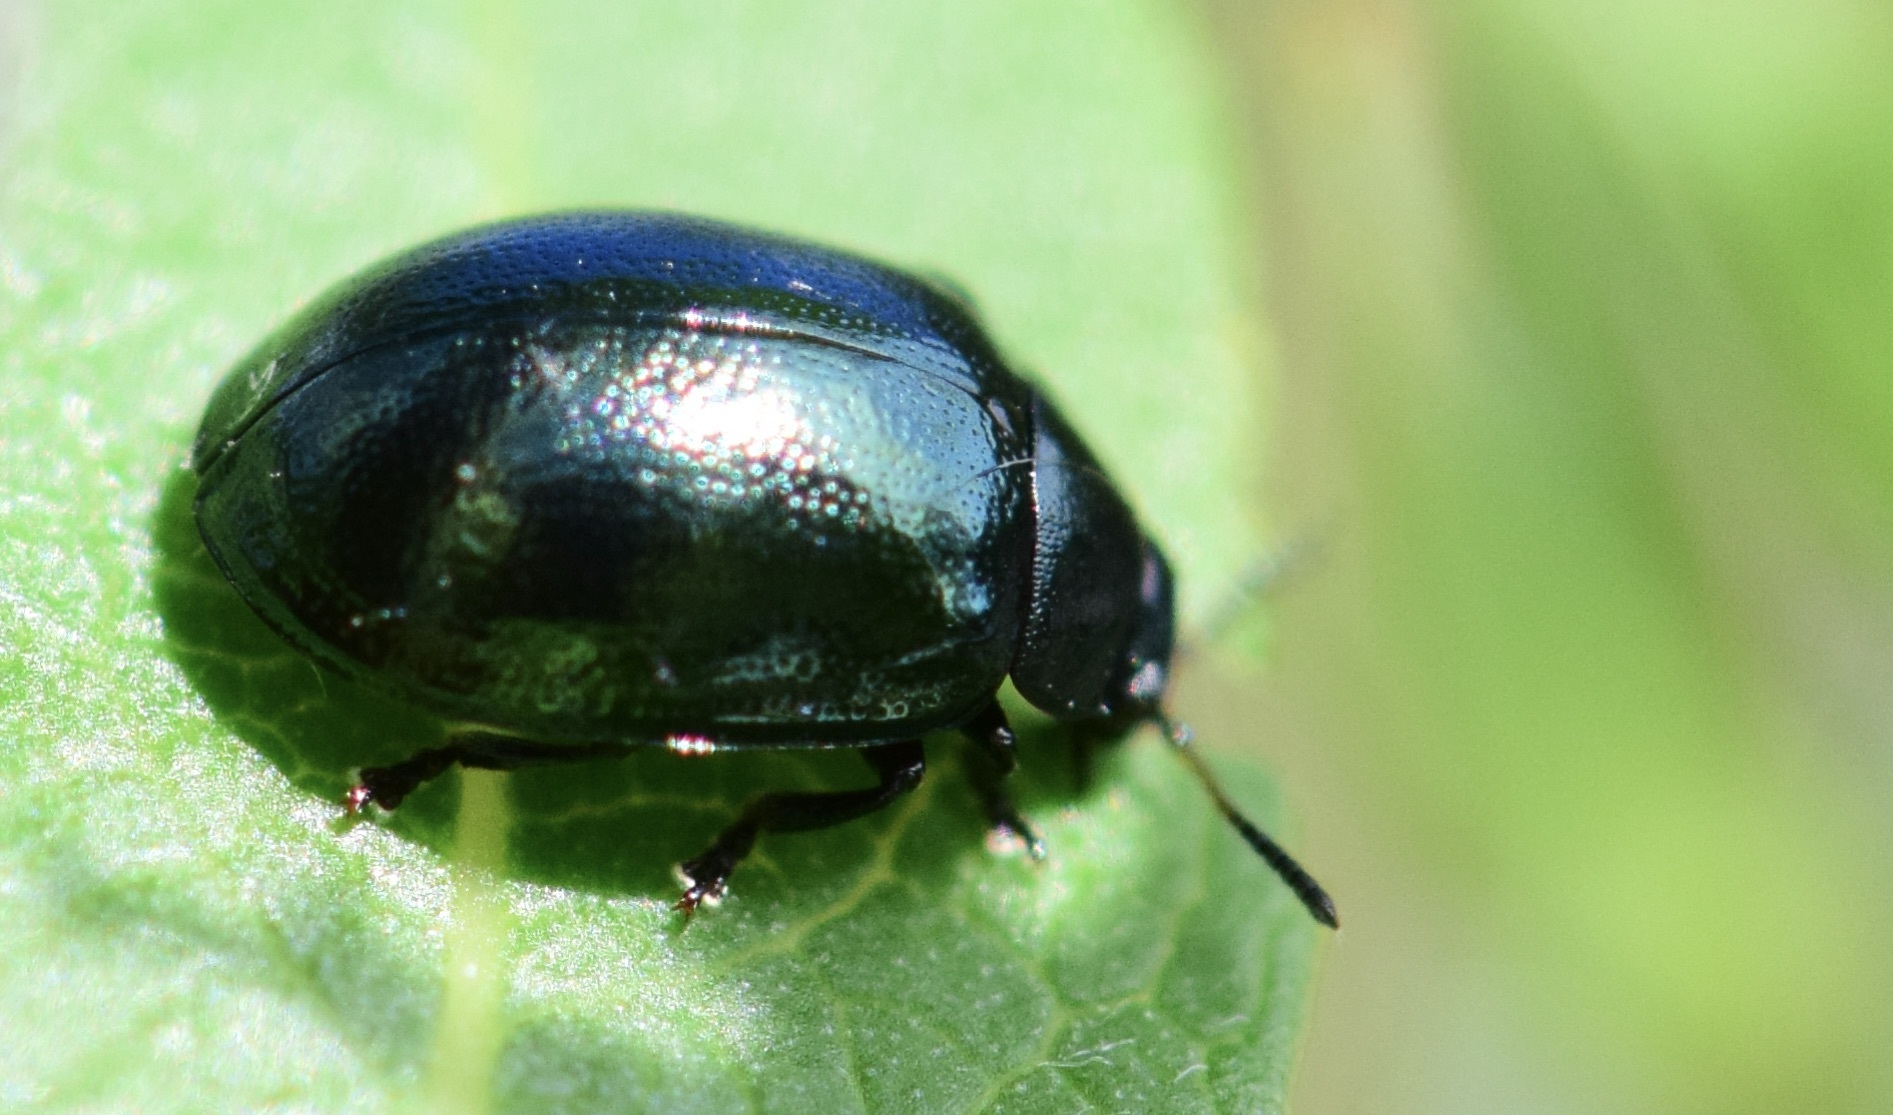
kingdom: Animalia
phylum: Arthropoda
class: Insecta
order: Coleoptera
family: Chrysomelidae
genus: Plagiodera
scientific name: Plagiodera versicolora
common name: Imported willow leaf beetle
